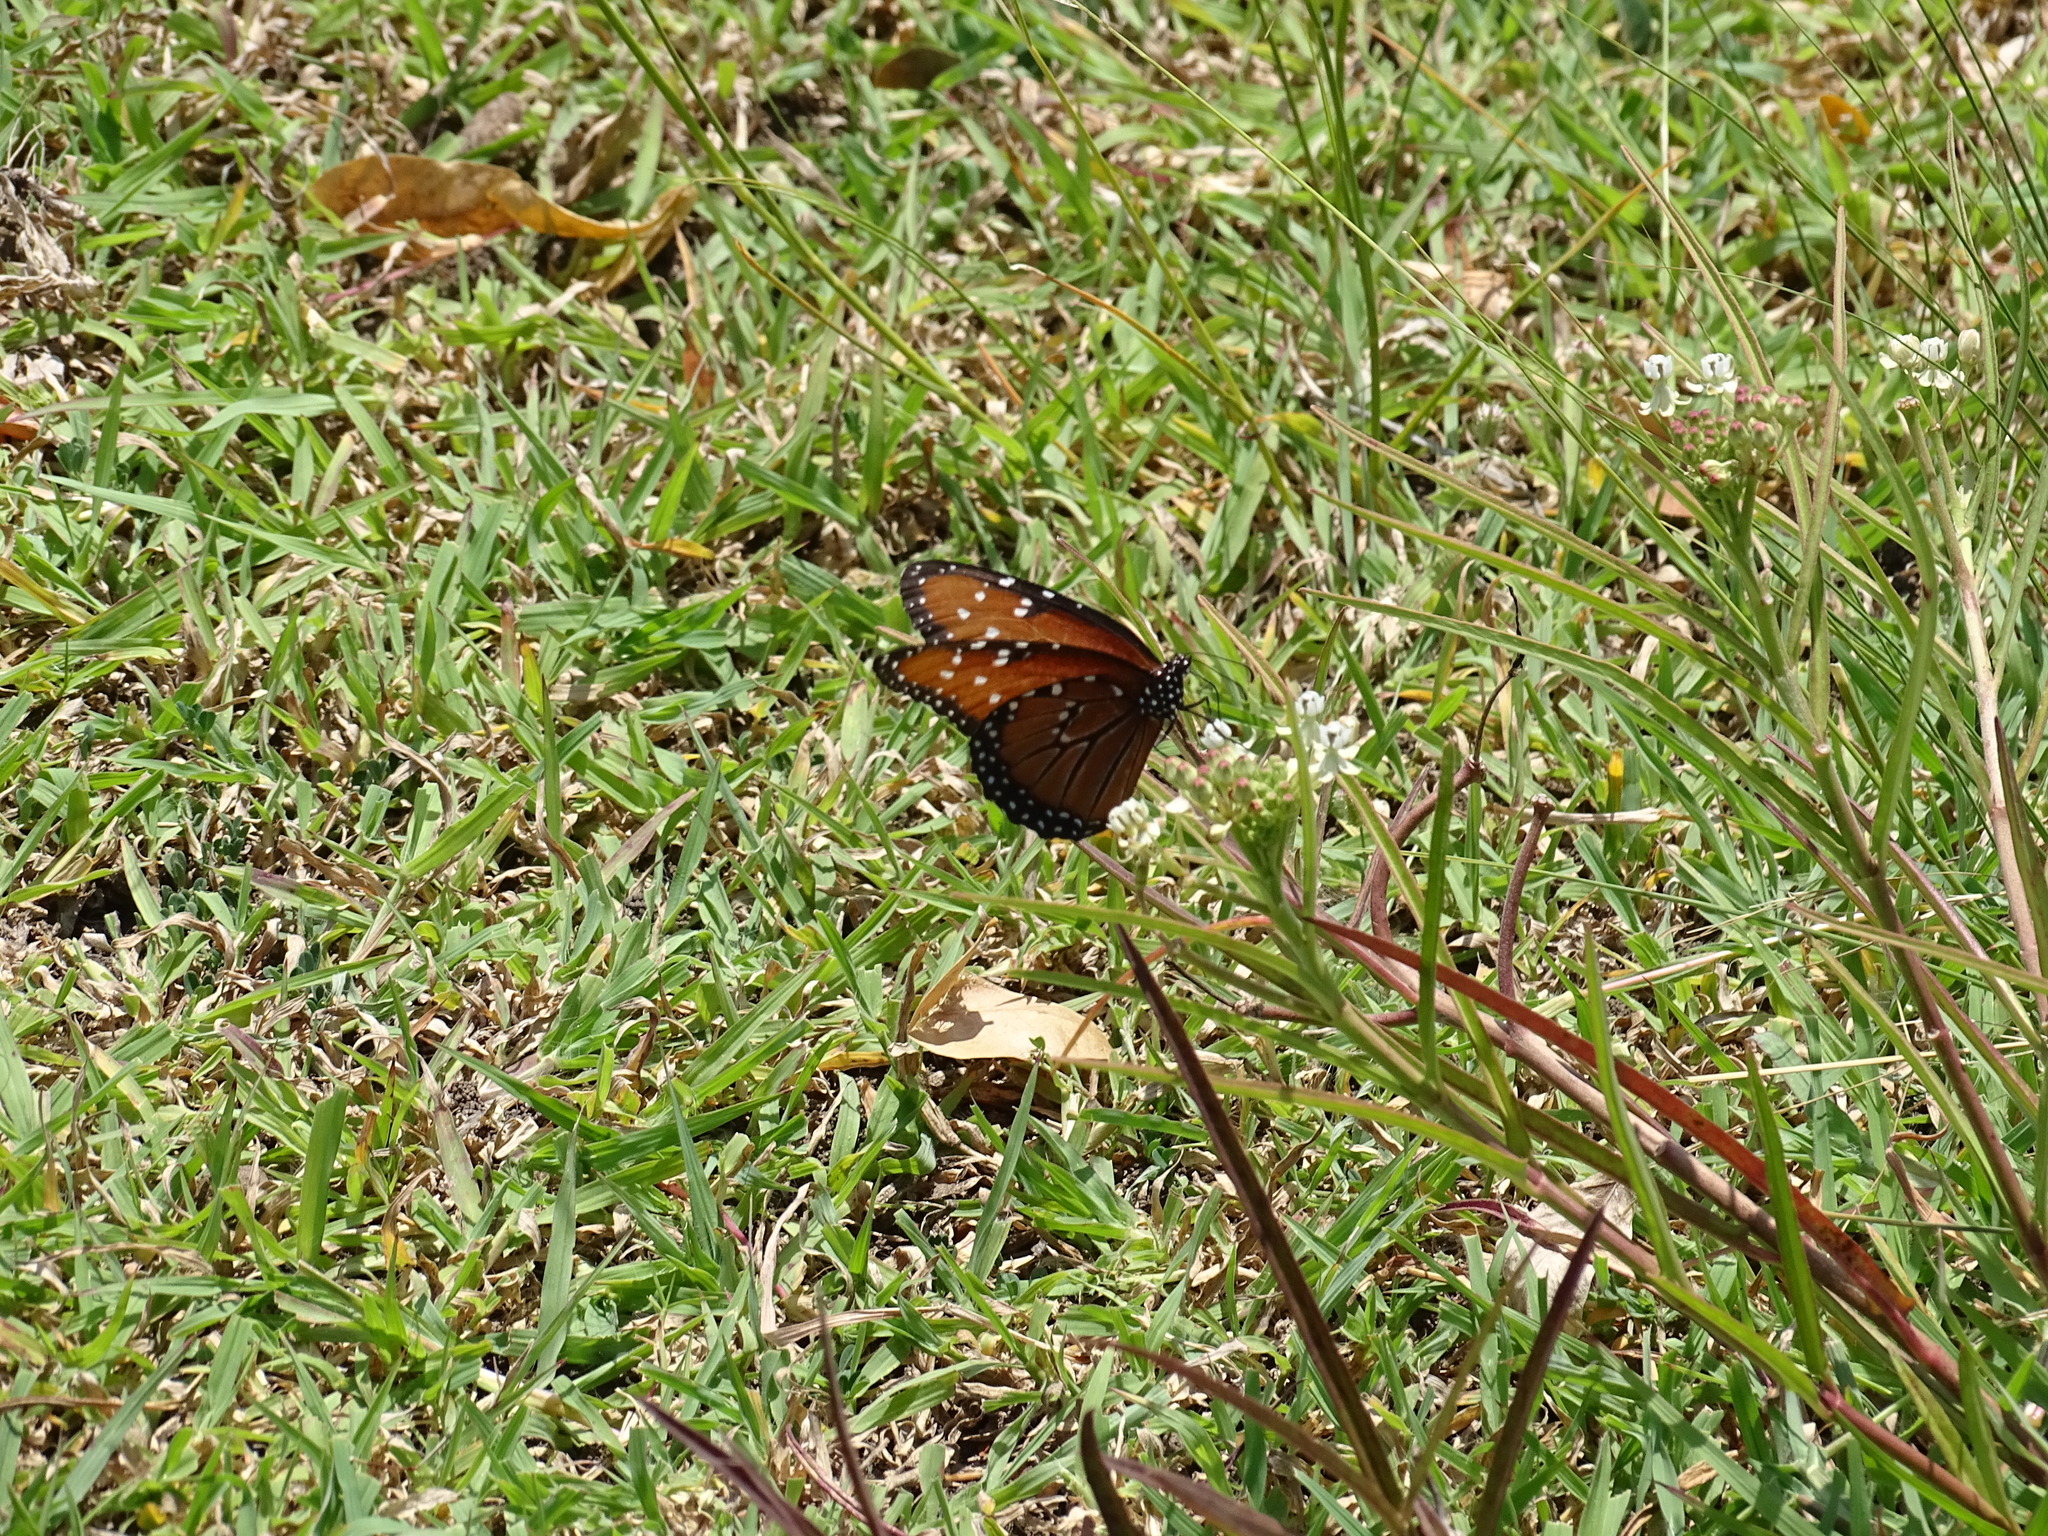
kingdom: Animalia
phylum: Arthropoda
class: Insecta
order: Lepidoptera
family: Nymphalidae
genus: Danaus
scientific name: Danaus gilippus
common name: Queen
